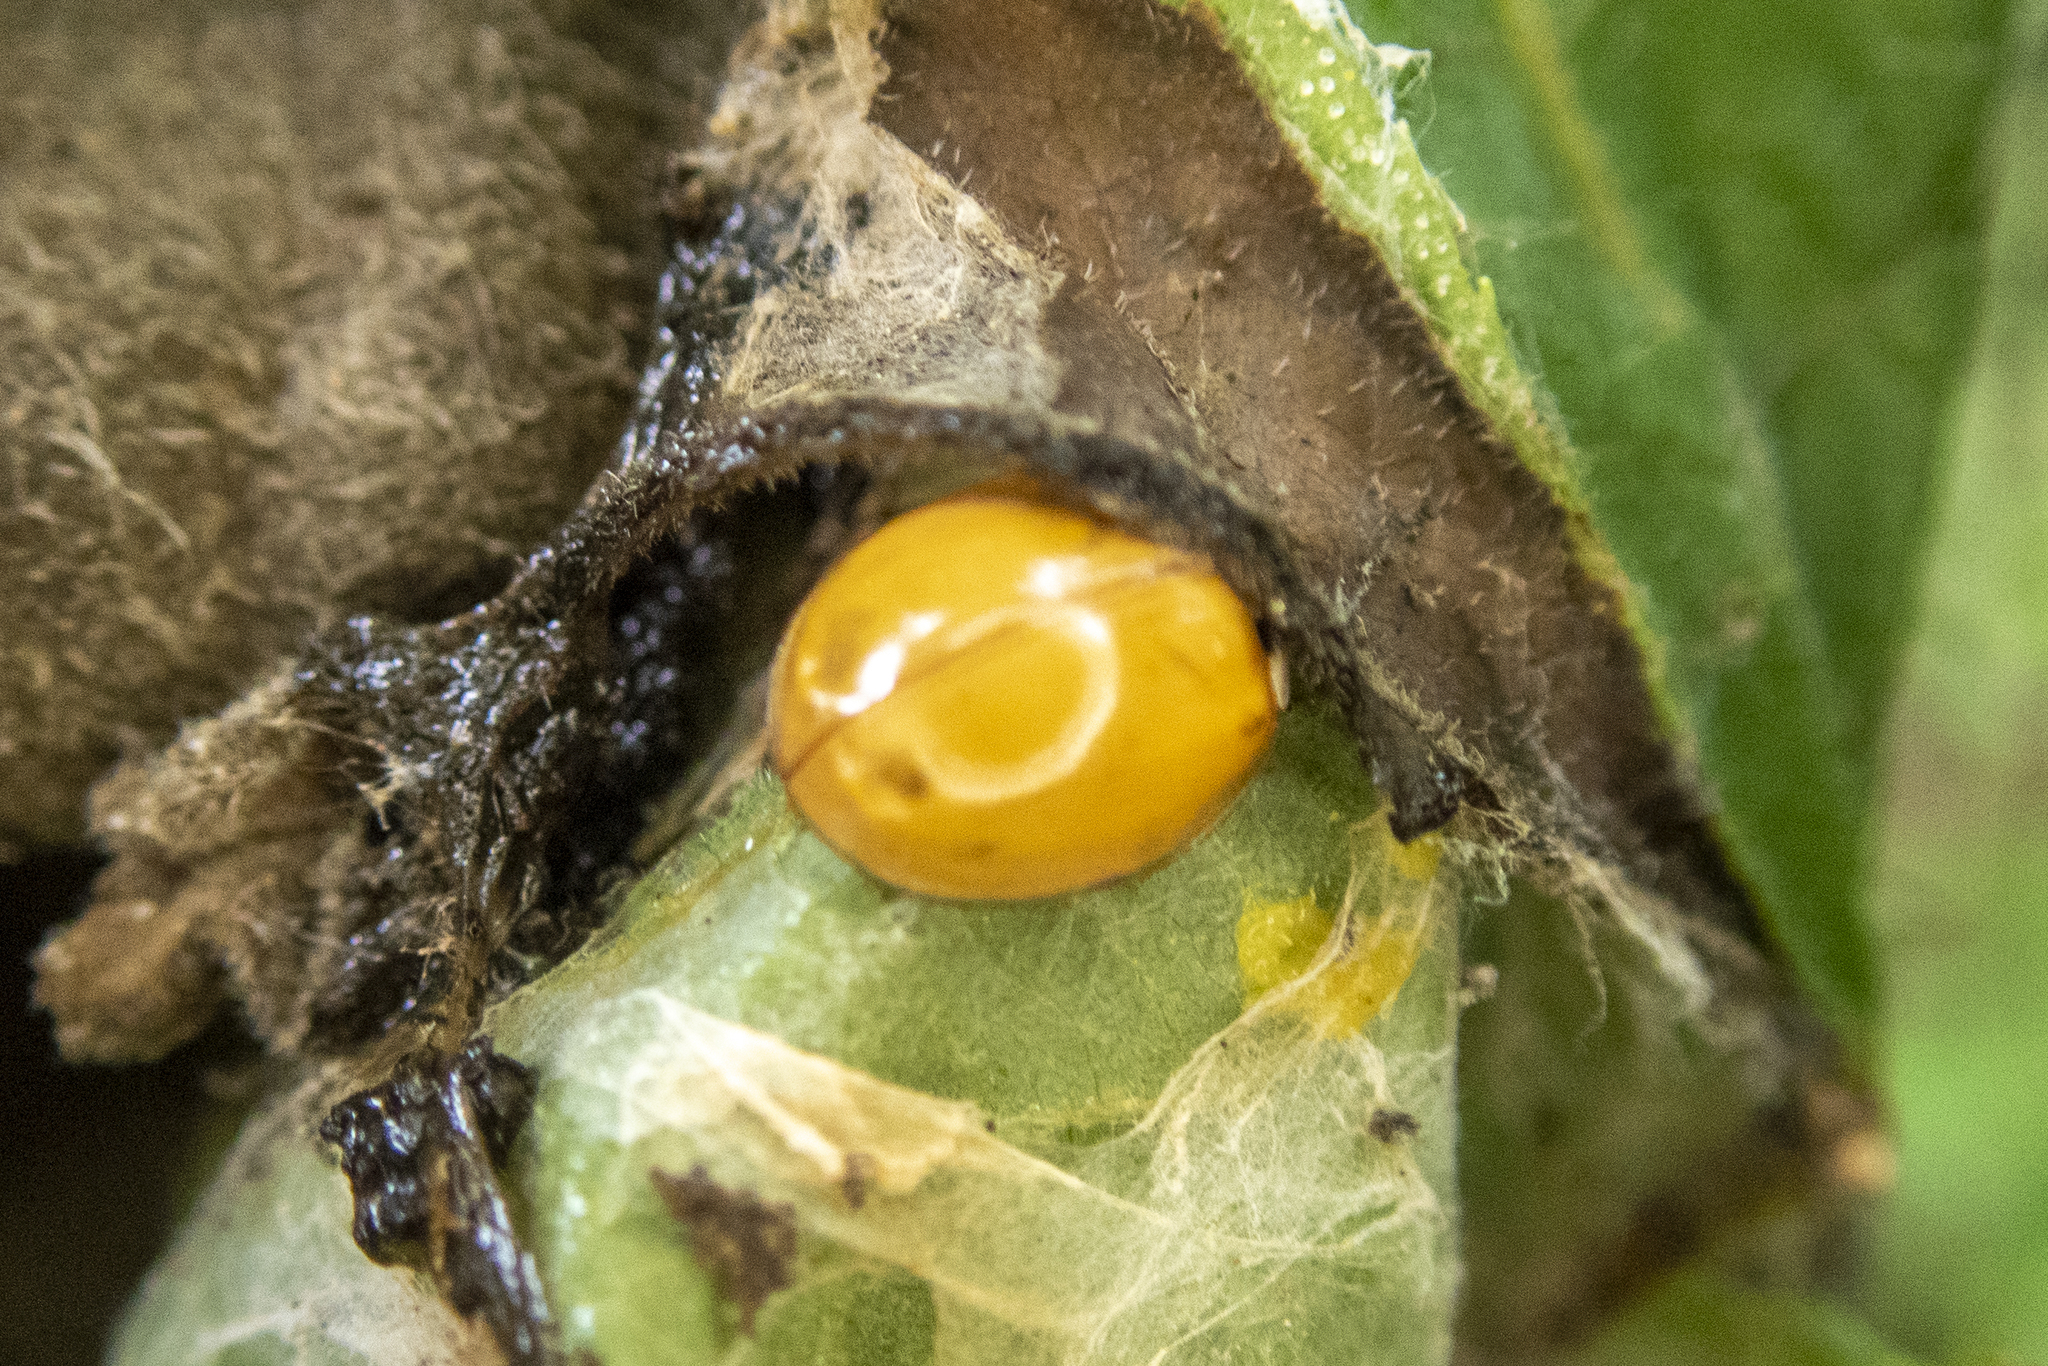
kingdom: Animalia
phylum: Arthropoda
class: Insecta
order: Coleoptera
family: Coccinellidae
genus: Harmonia
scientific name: Harmonia axyridis
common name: Harlequin ladybird
